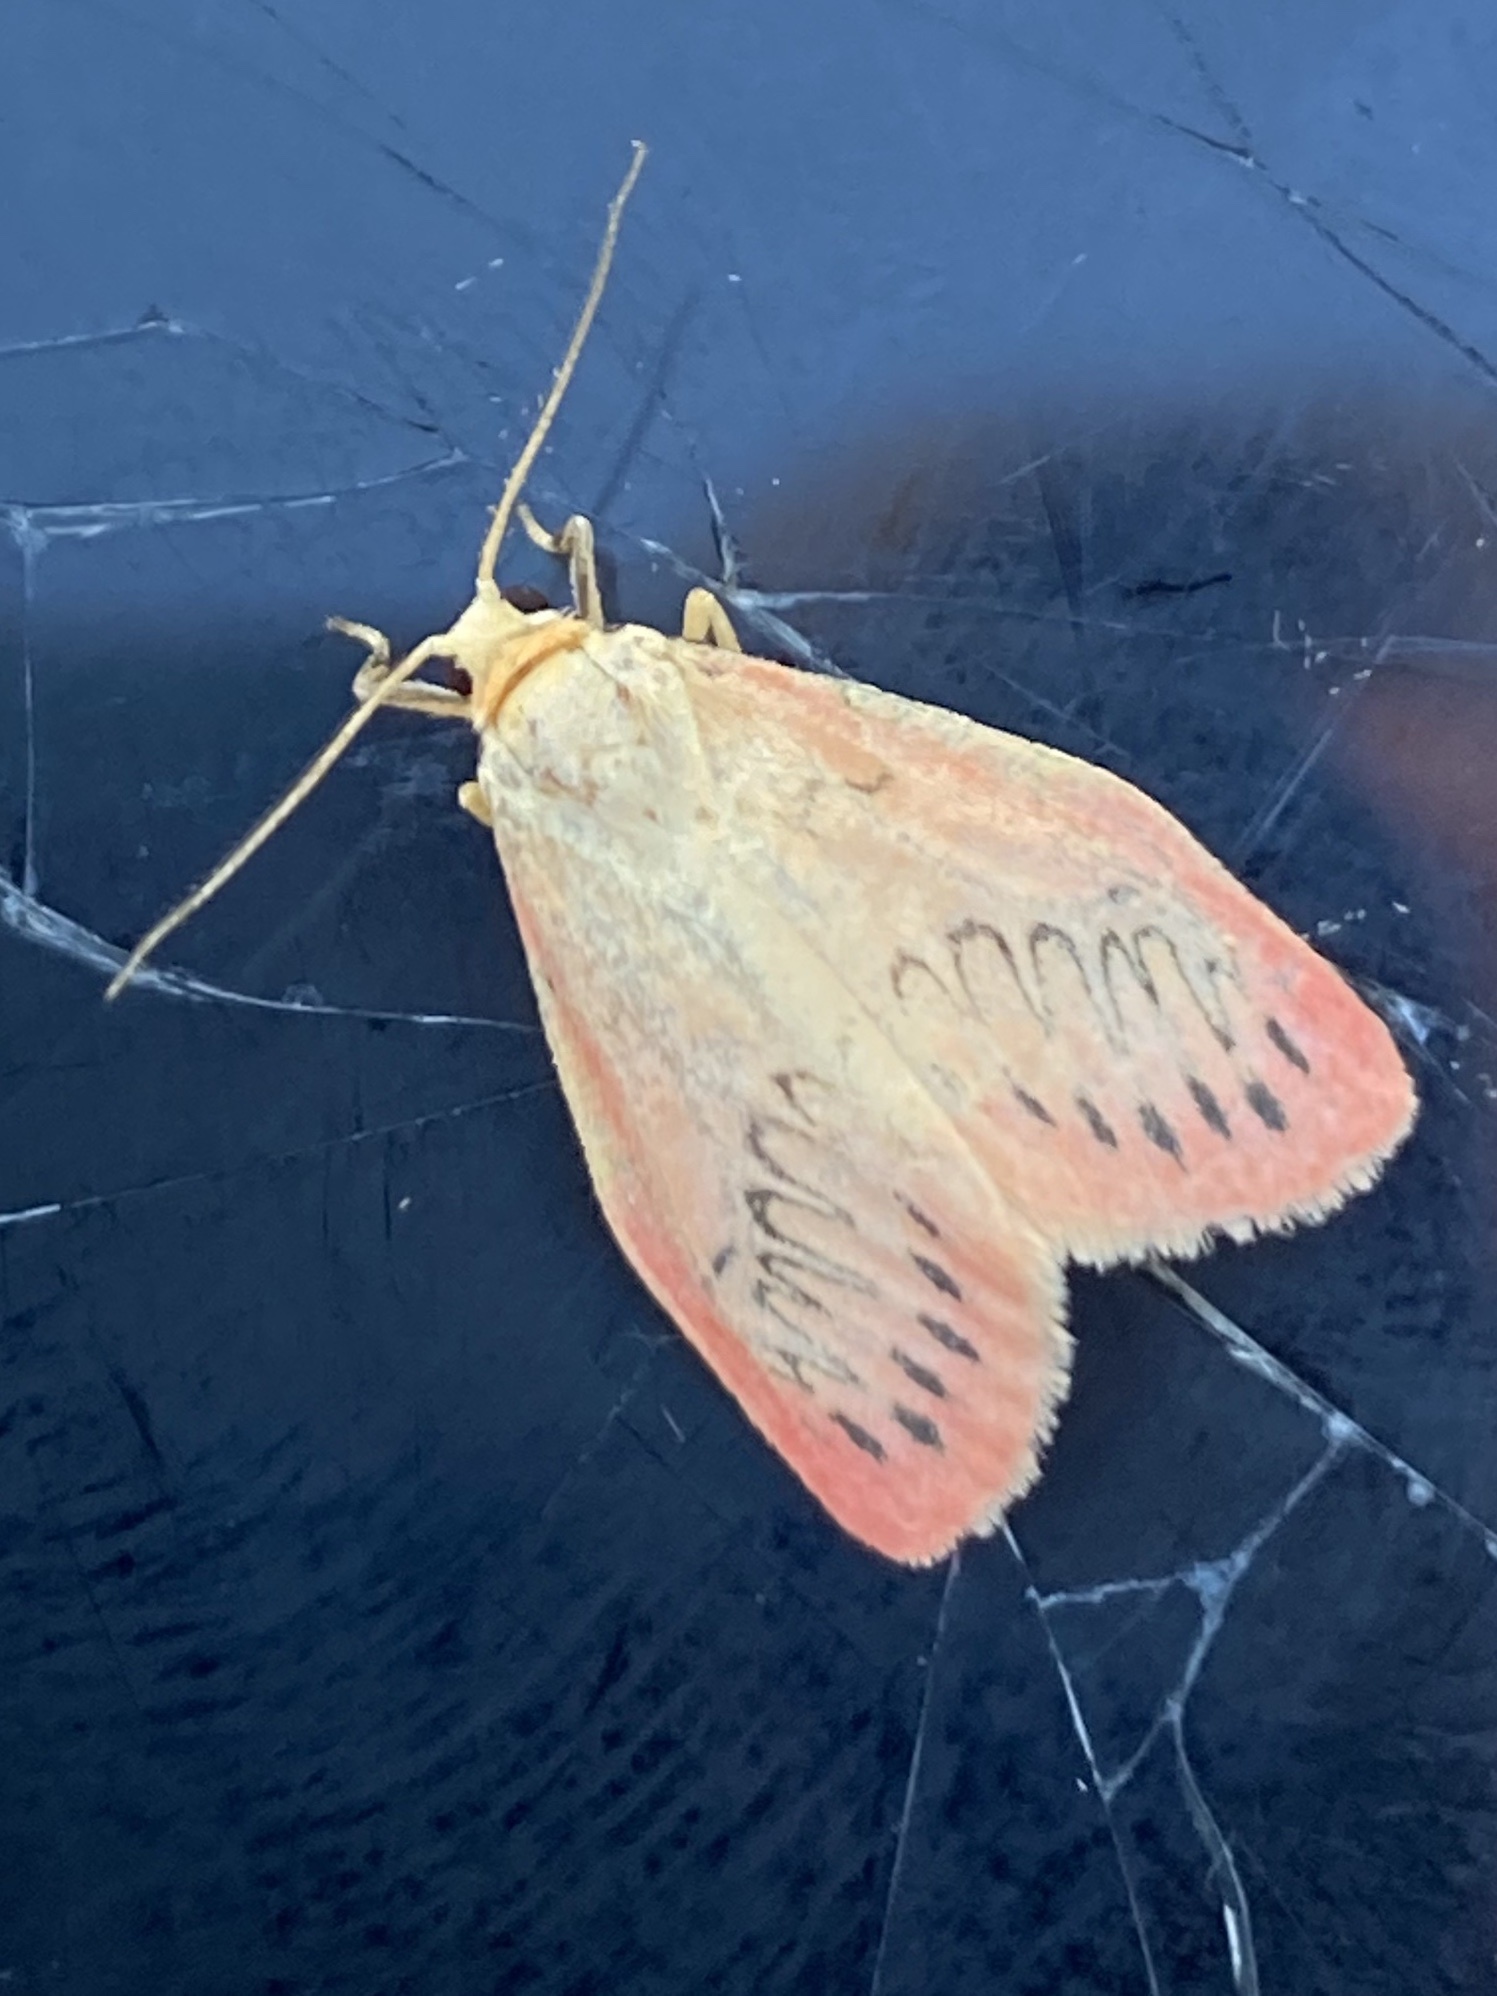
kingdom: Animalia
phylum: Arthropoda
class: Insecta
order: Lepidoptera
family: Erebidae
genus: Miltochrista
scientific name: Miltochrista miniata
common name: Rosy footman
